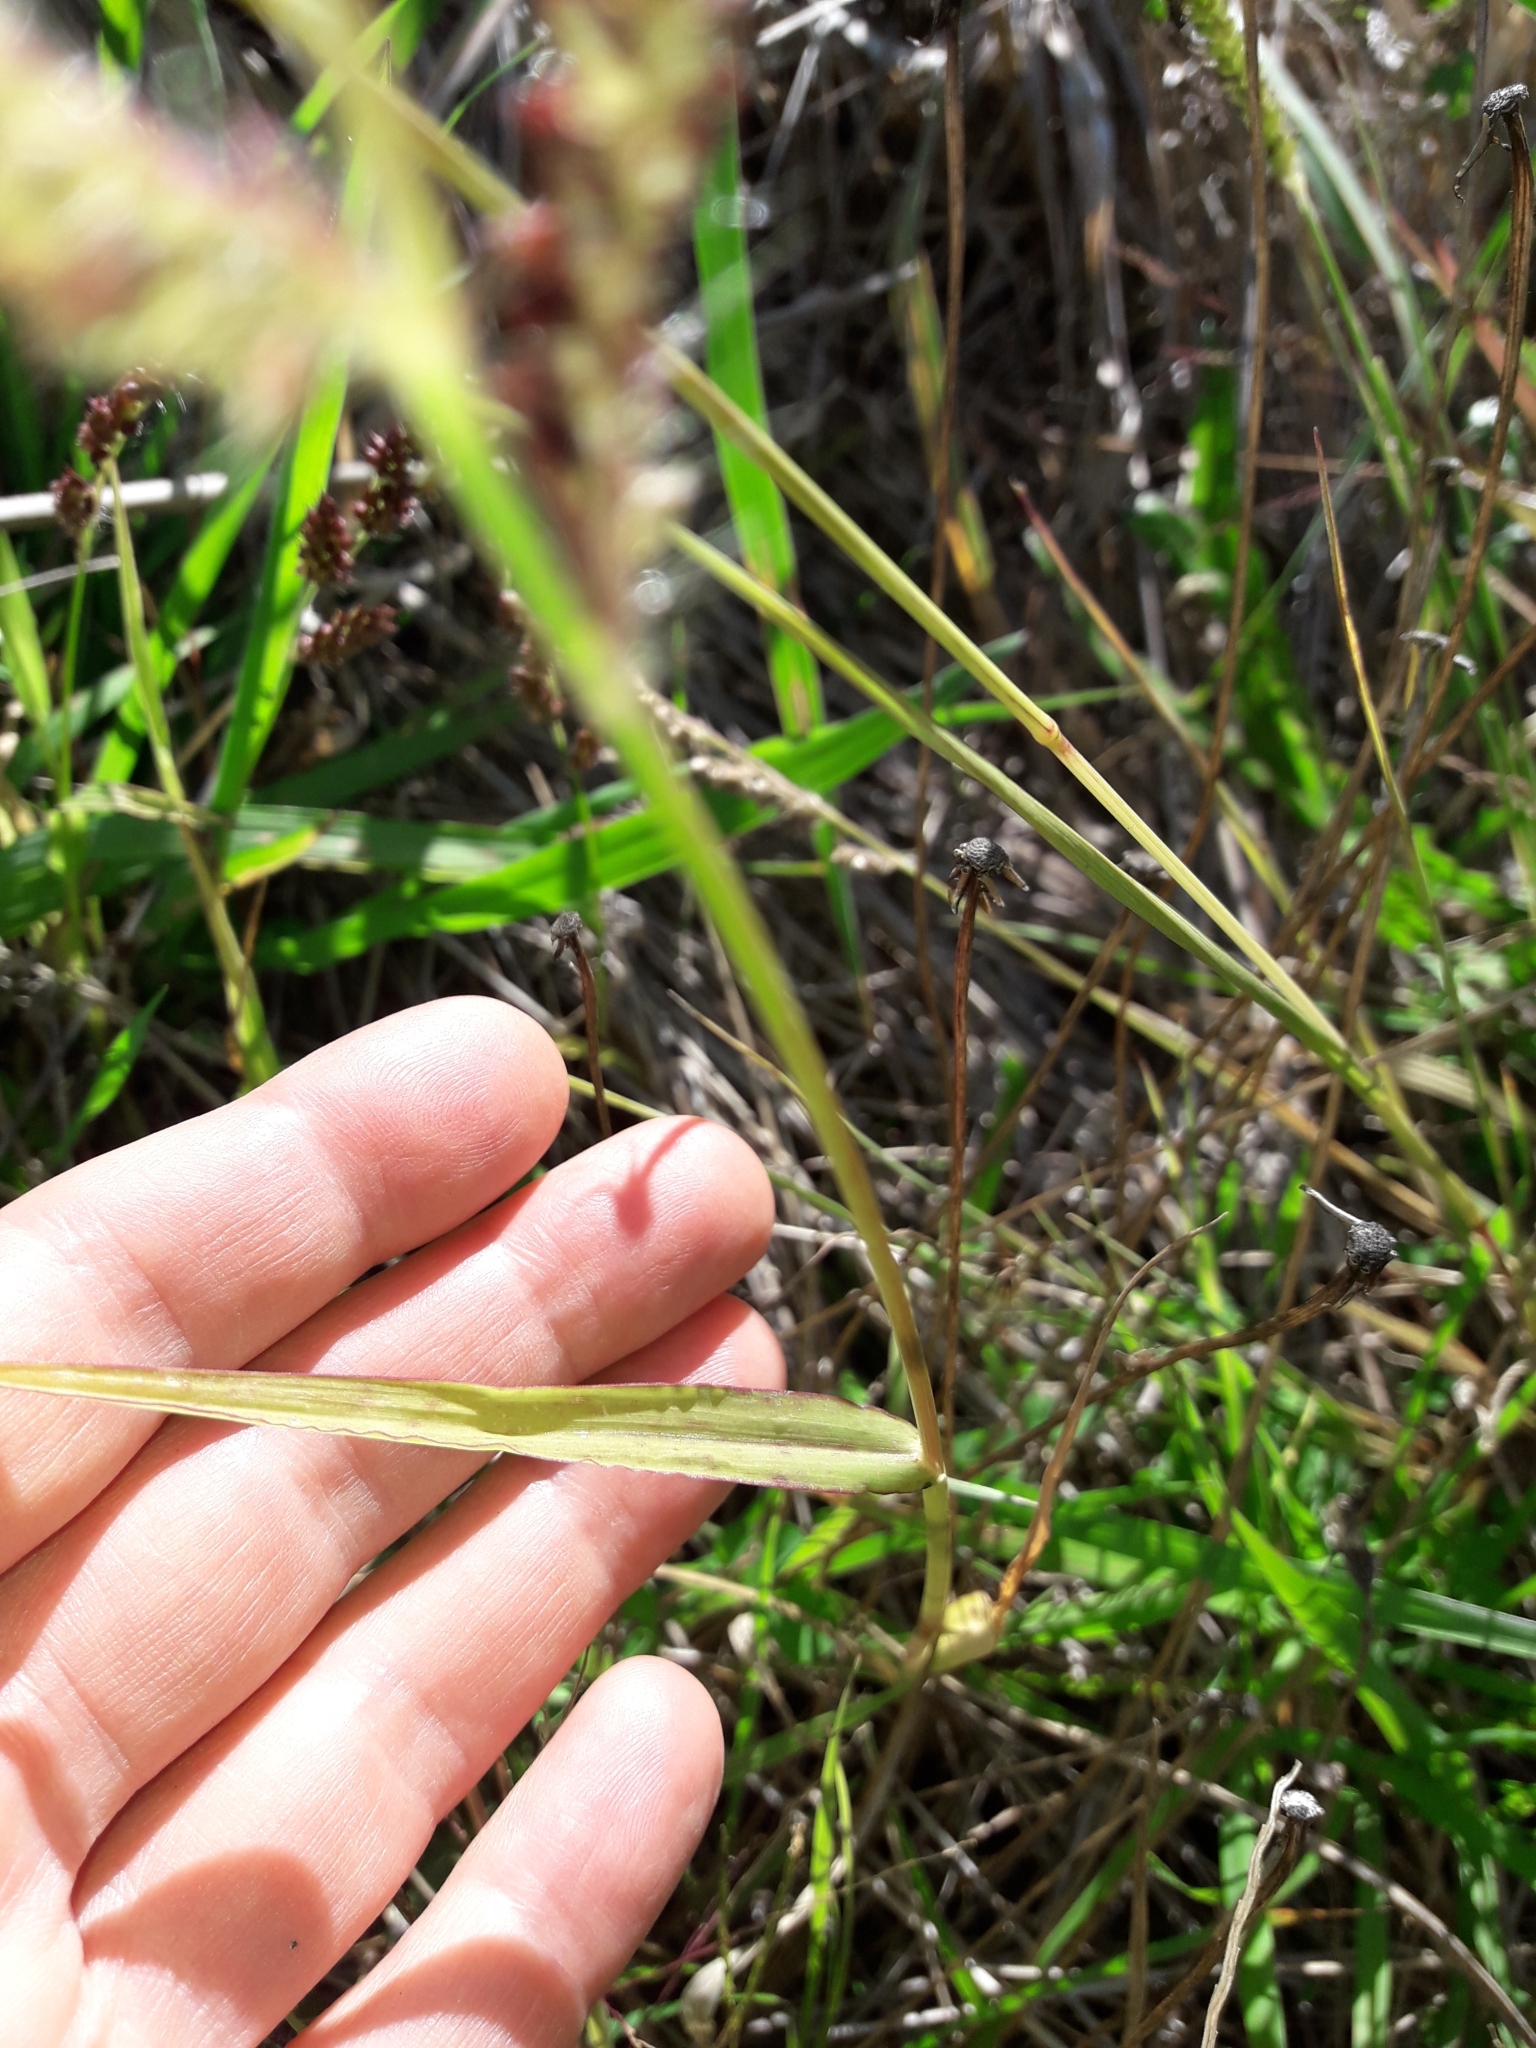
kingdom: Plantae
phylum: Tracheophyta
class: Liliopsida
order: Poales
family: Poaceae
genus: Echinochloa
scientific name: Echinochloa crus-galli
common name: Cockspur
